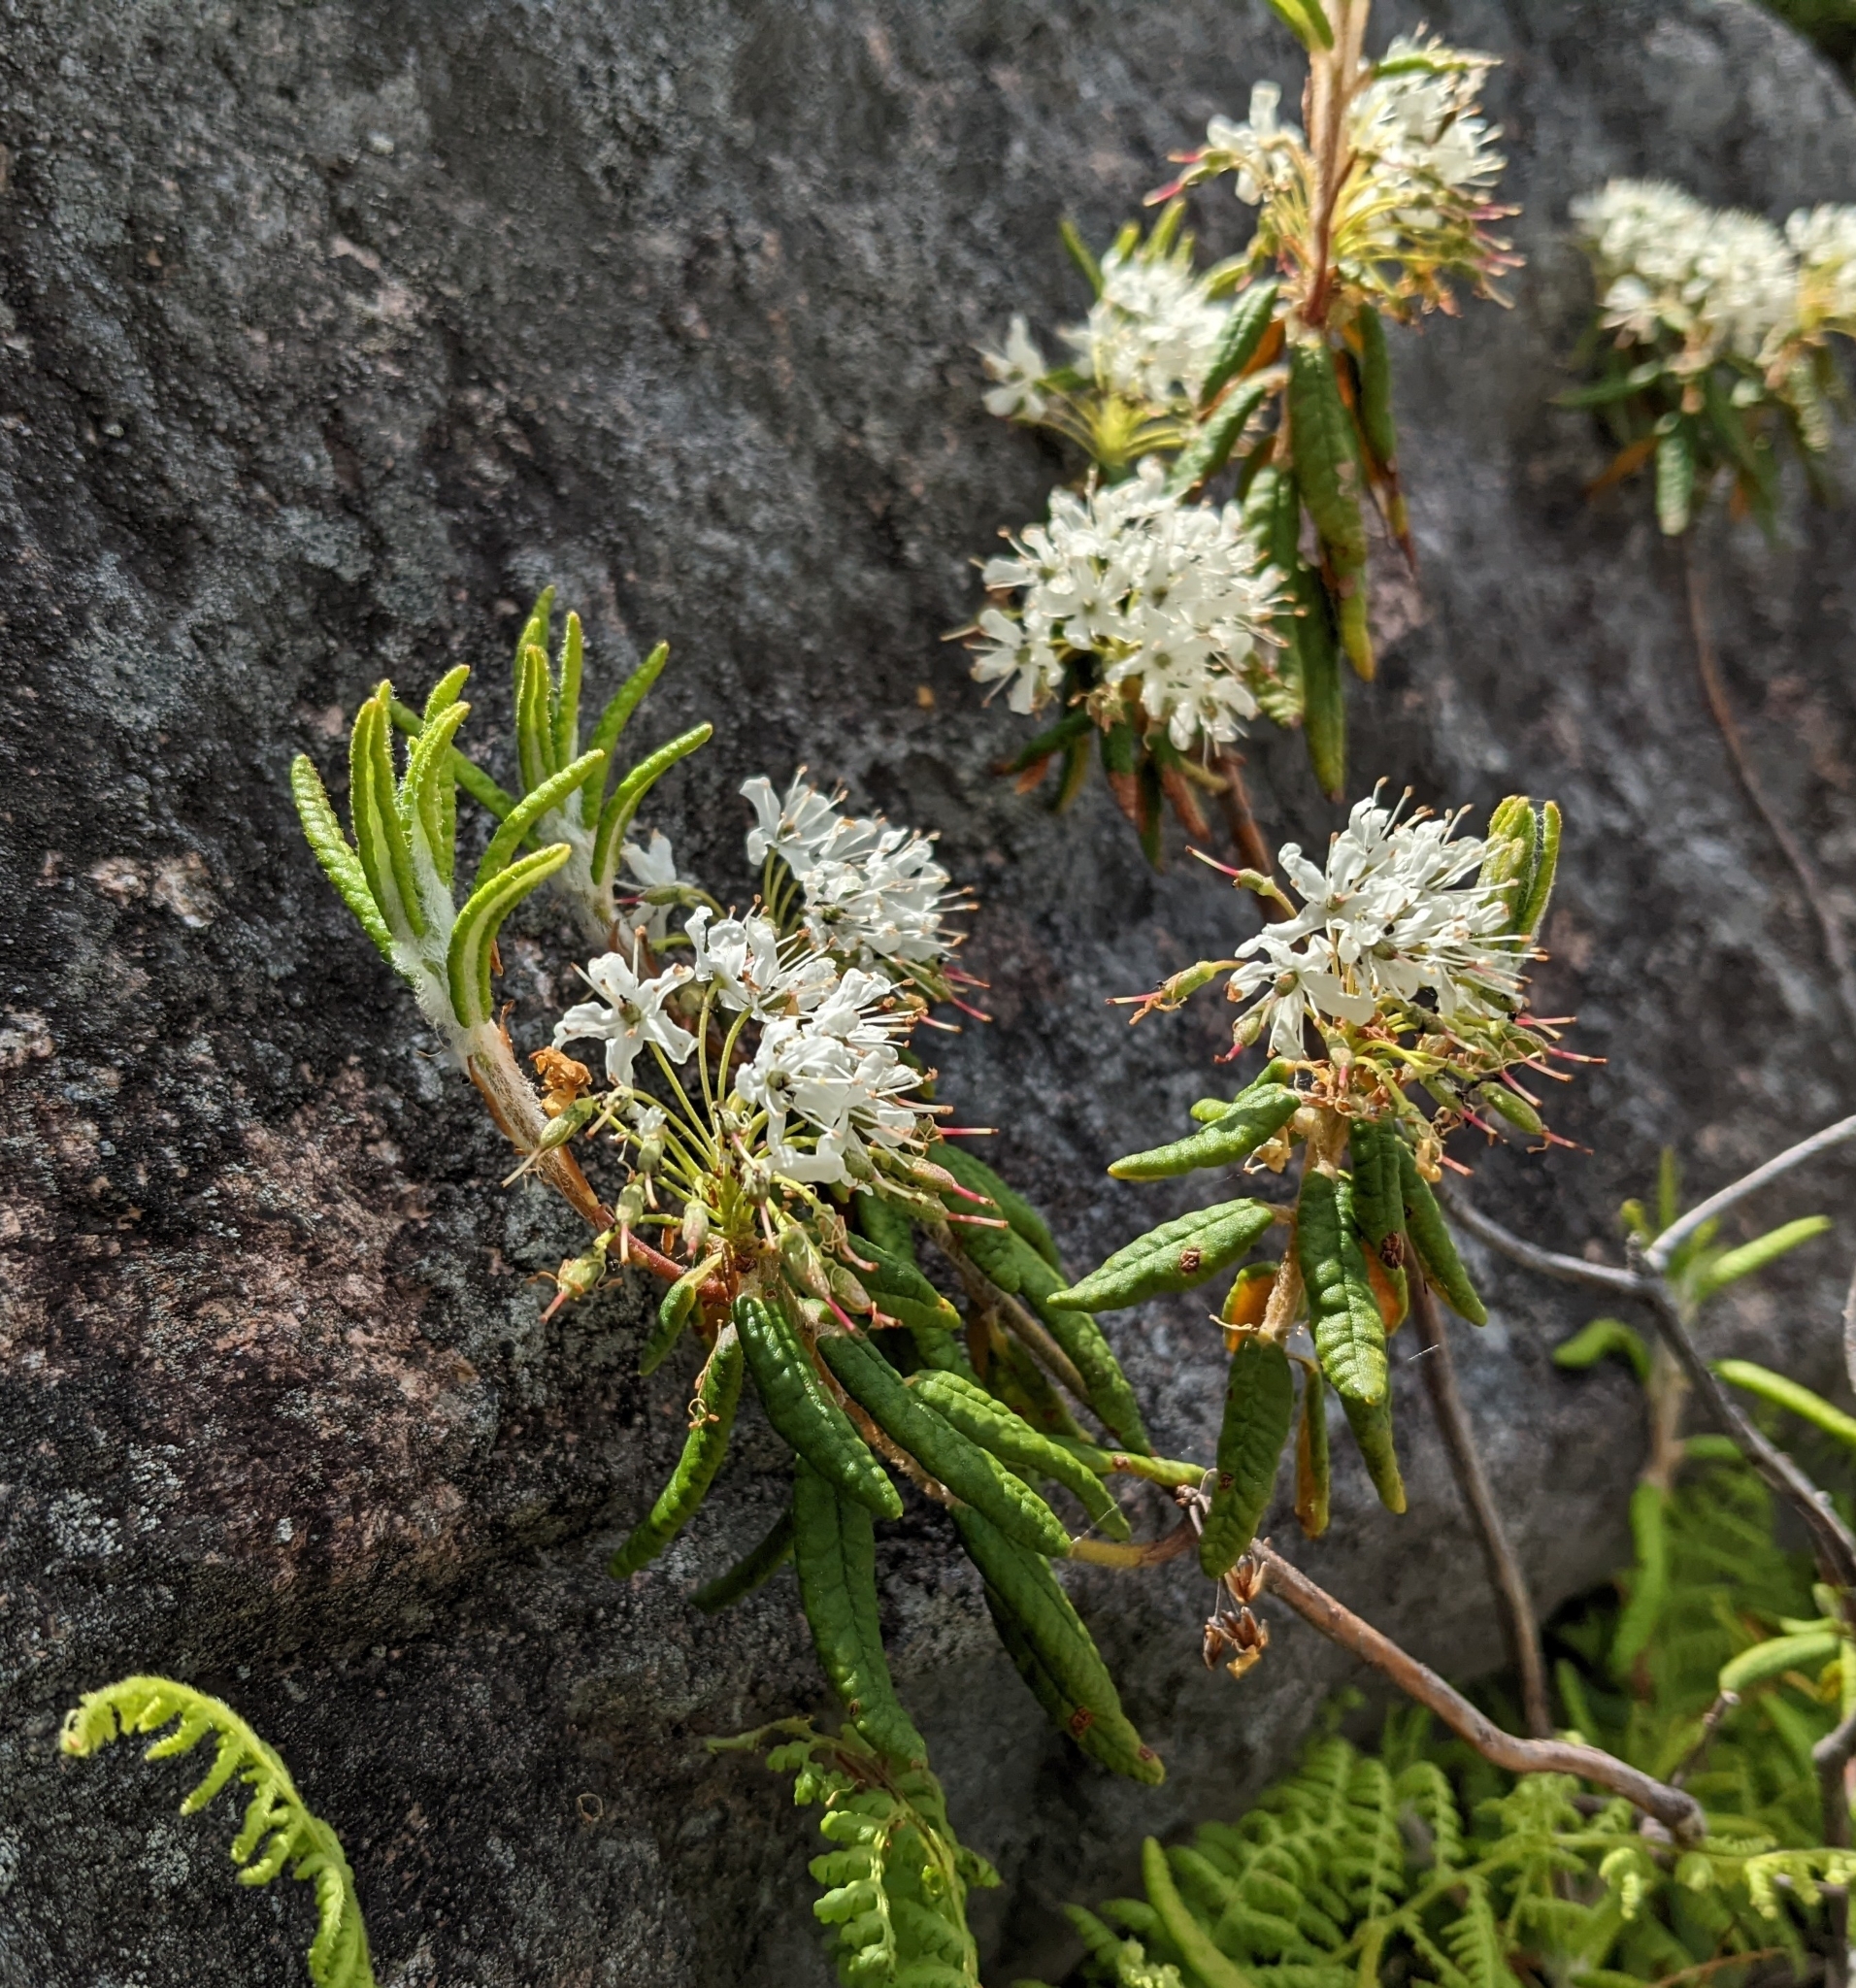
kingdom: Plantae
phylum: Tracheophyta
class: Magnoliopsida
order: Ericales
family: Ericaceae
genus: Rhododendron
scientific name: Rhododendron groenlandicum
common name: Bog labrador tea
